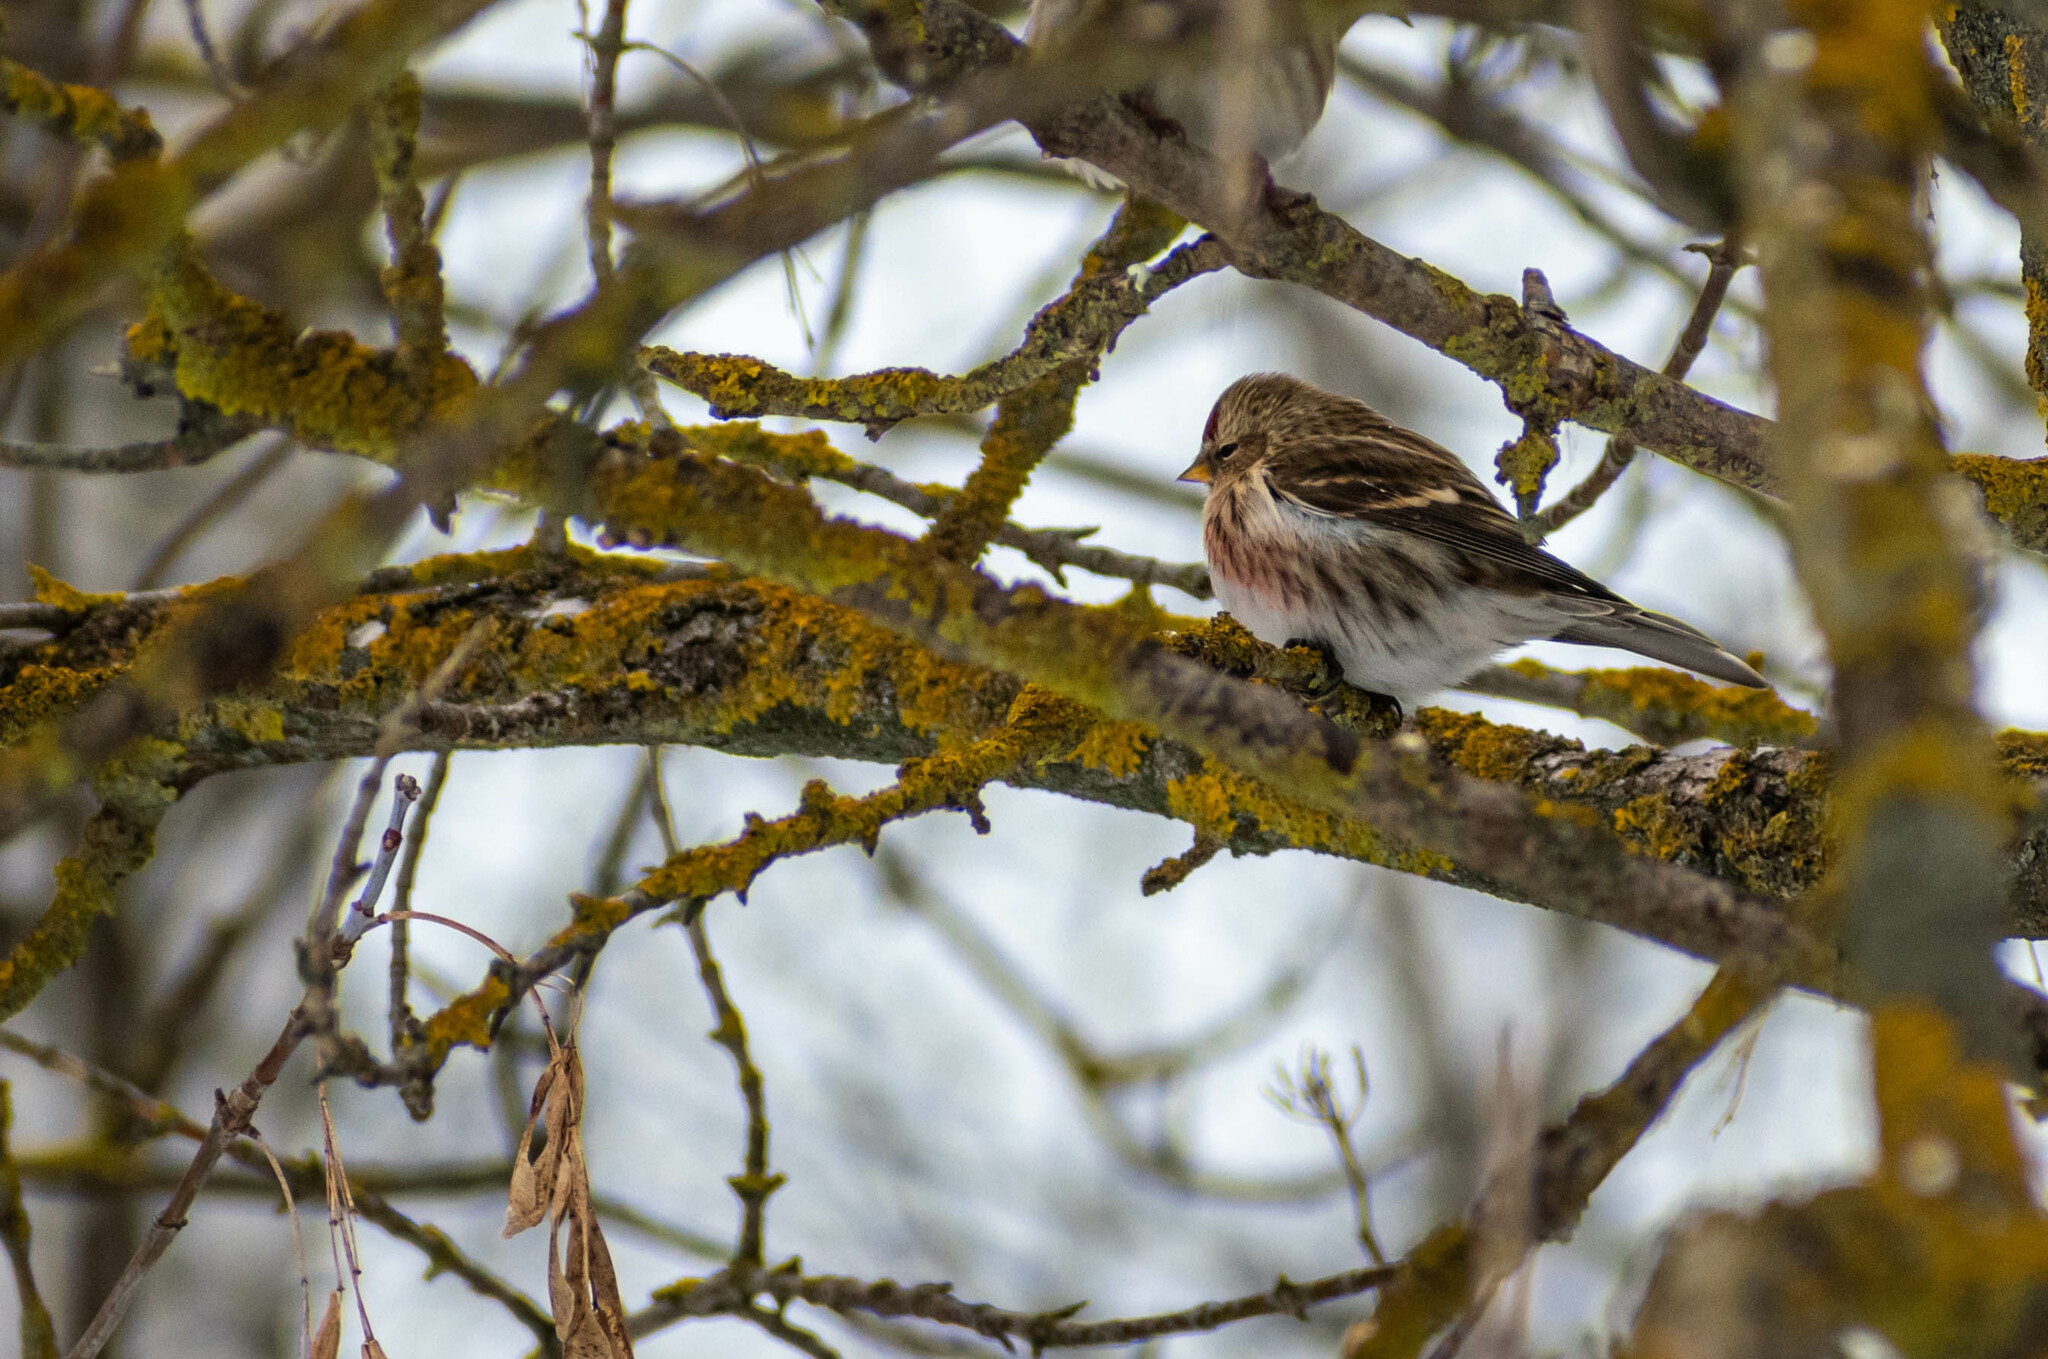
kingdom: Animalia
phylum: Chordata
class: Aves
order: Passeriformes
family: Fringillidae
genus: Acanthis
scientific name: Acanthis flammea
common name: Common redpoll
